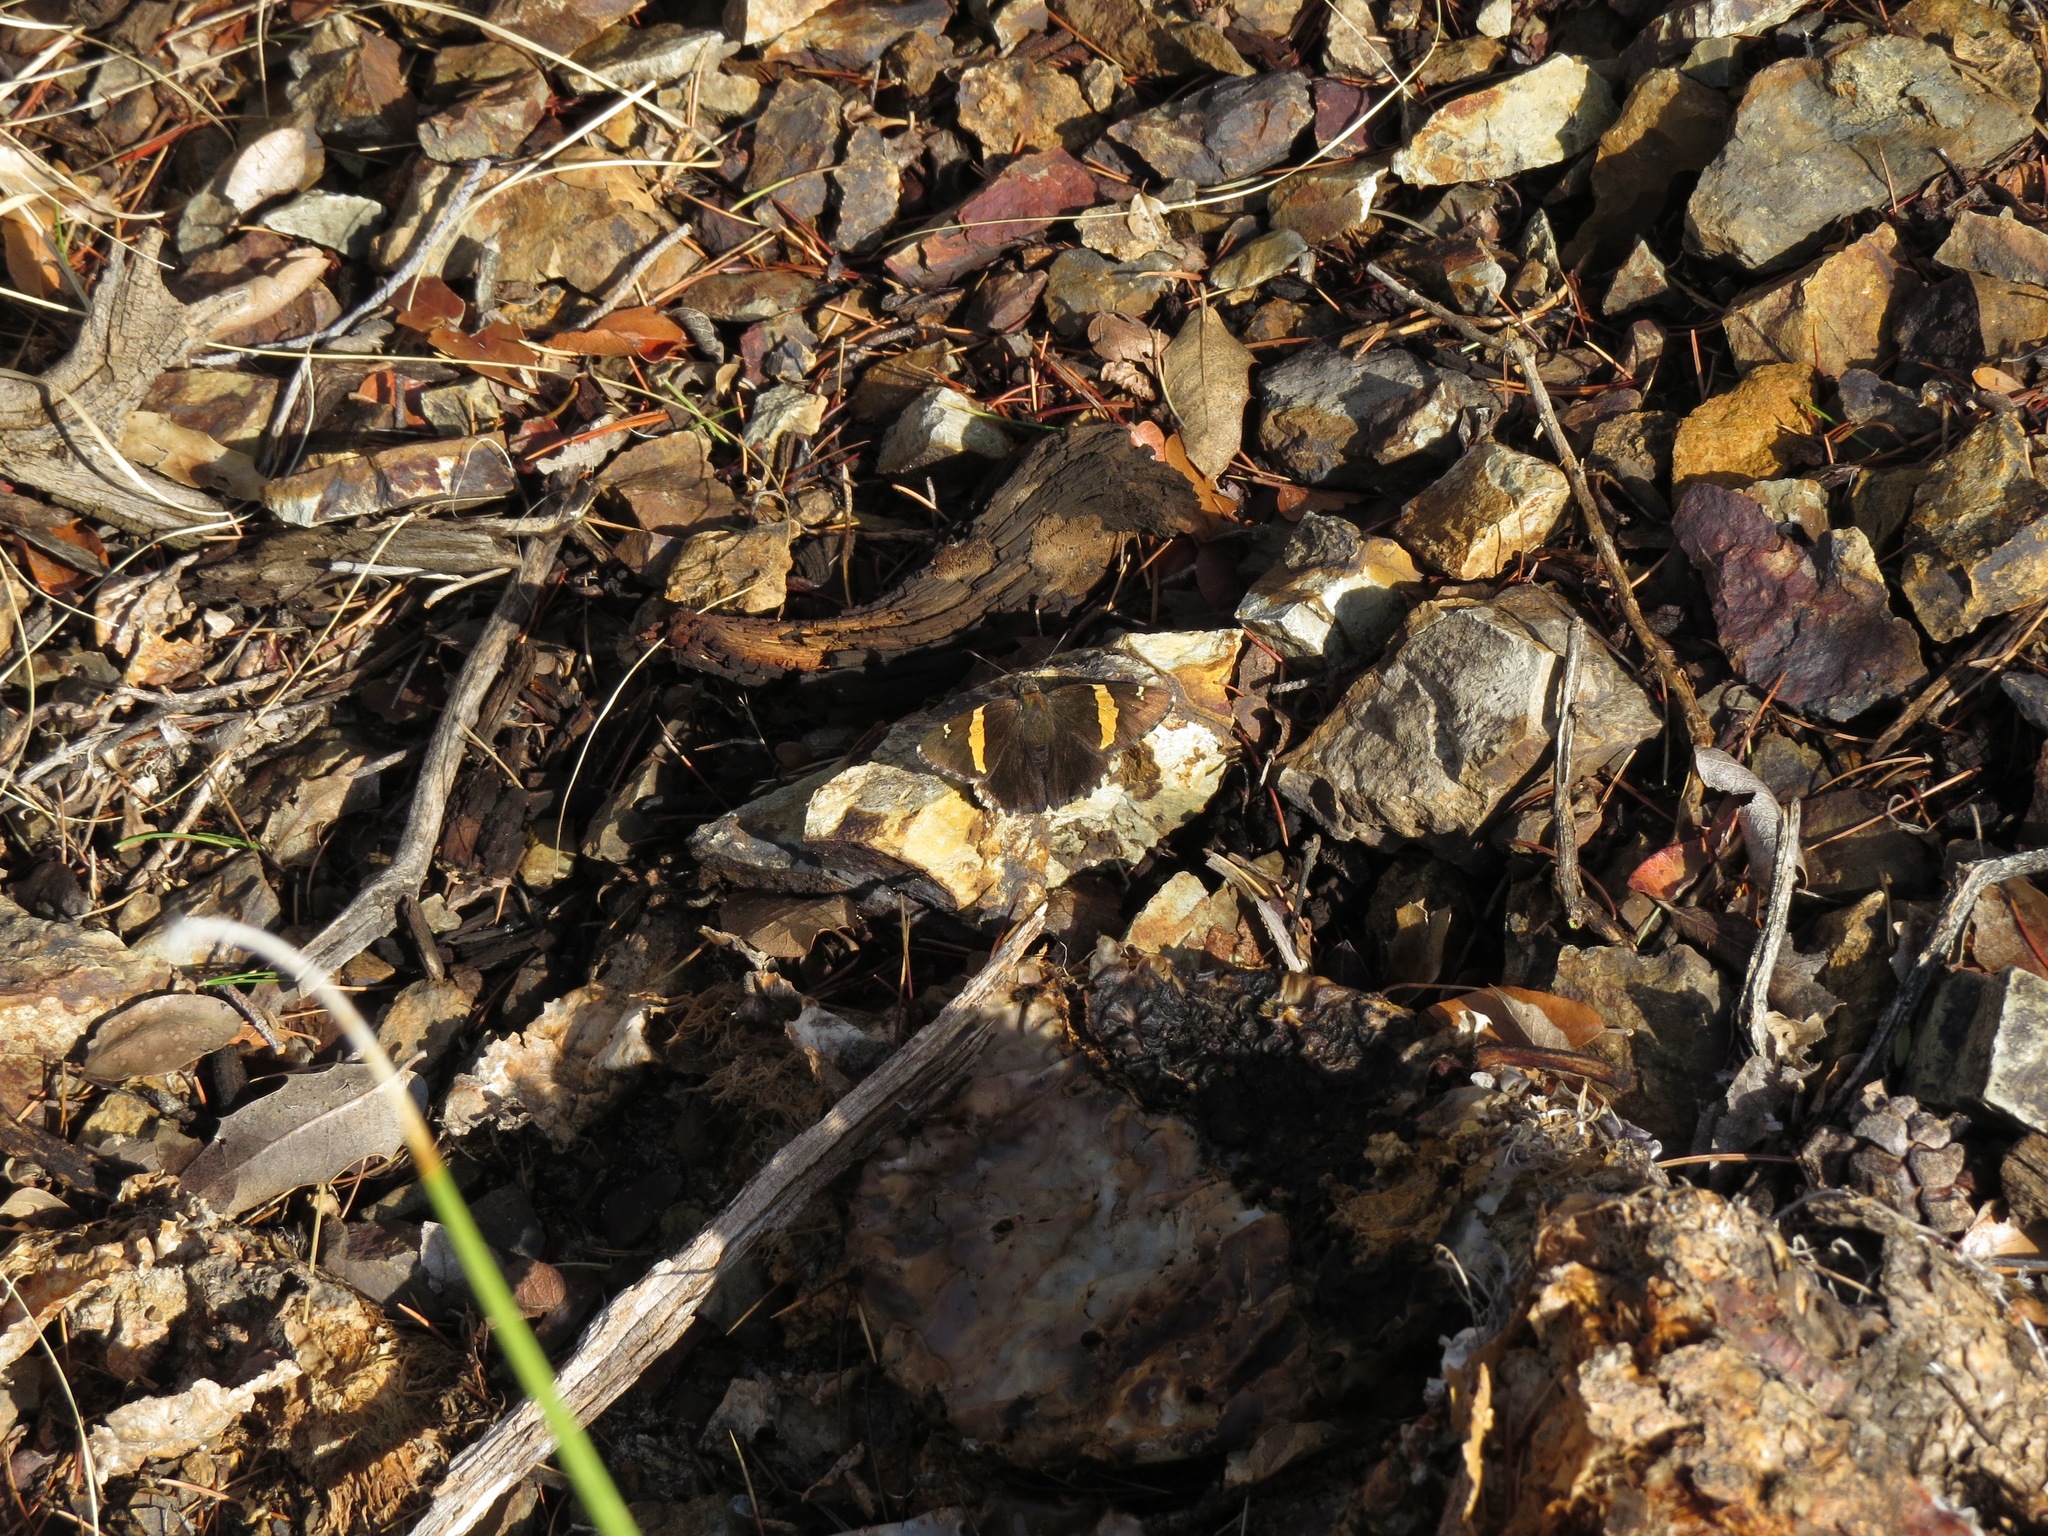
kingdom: Animalia
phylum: Arthropoda
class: Arachnida
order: Scorpiones
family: Bothriuridae
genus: Telegonus
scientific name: Telegonus cellus
